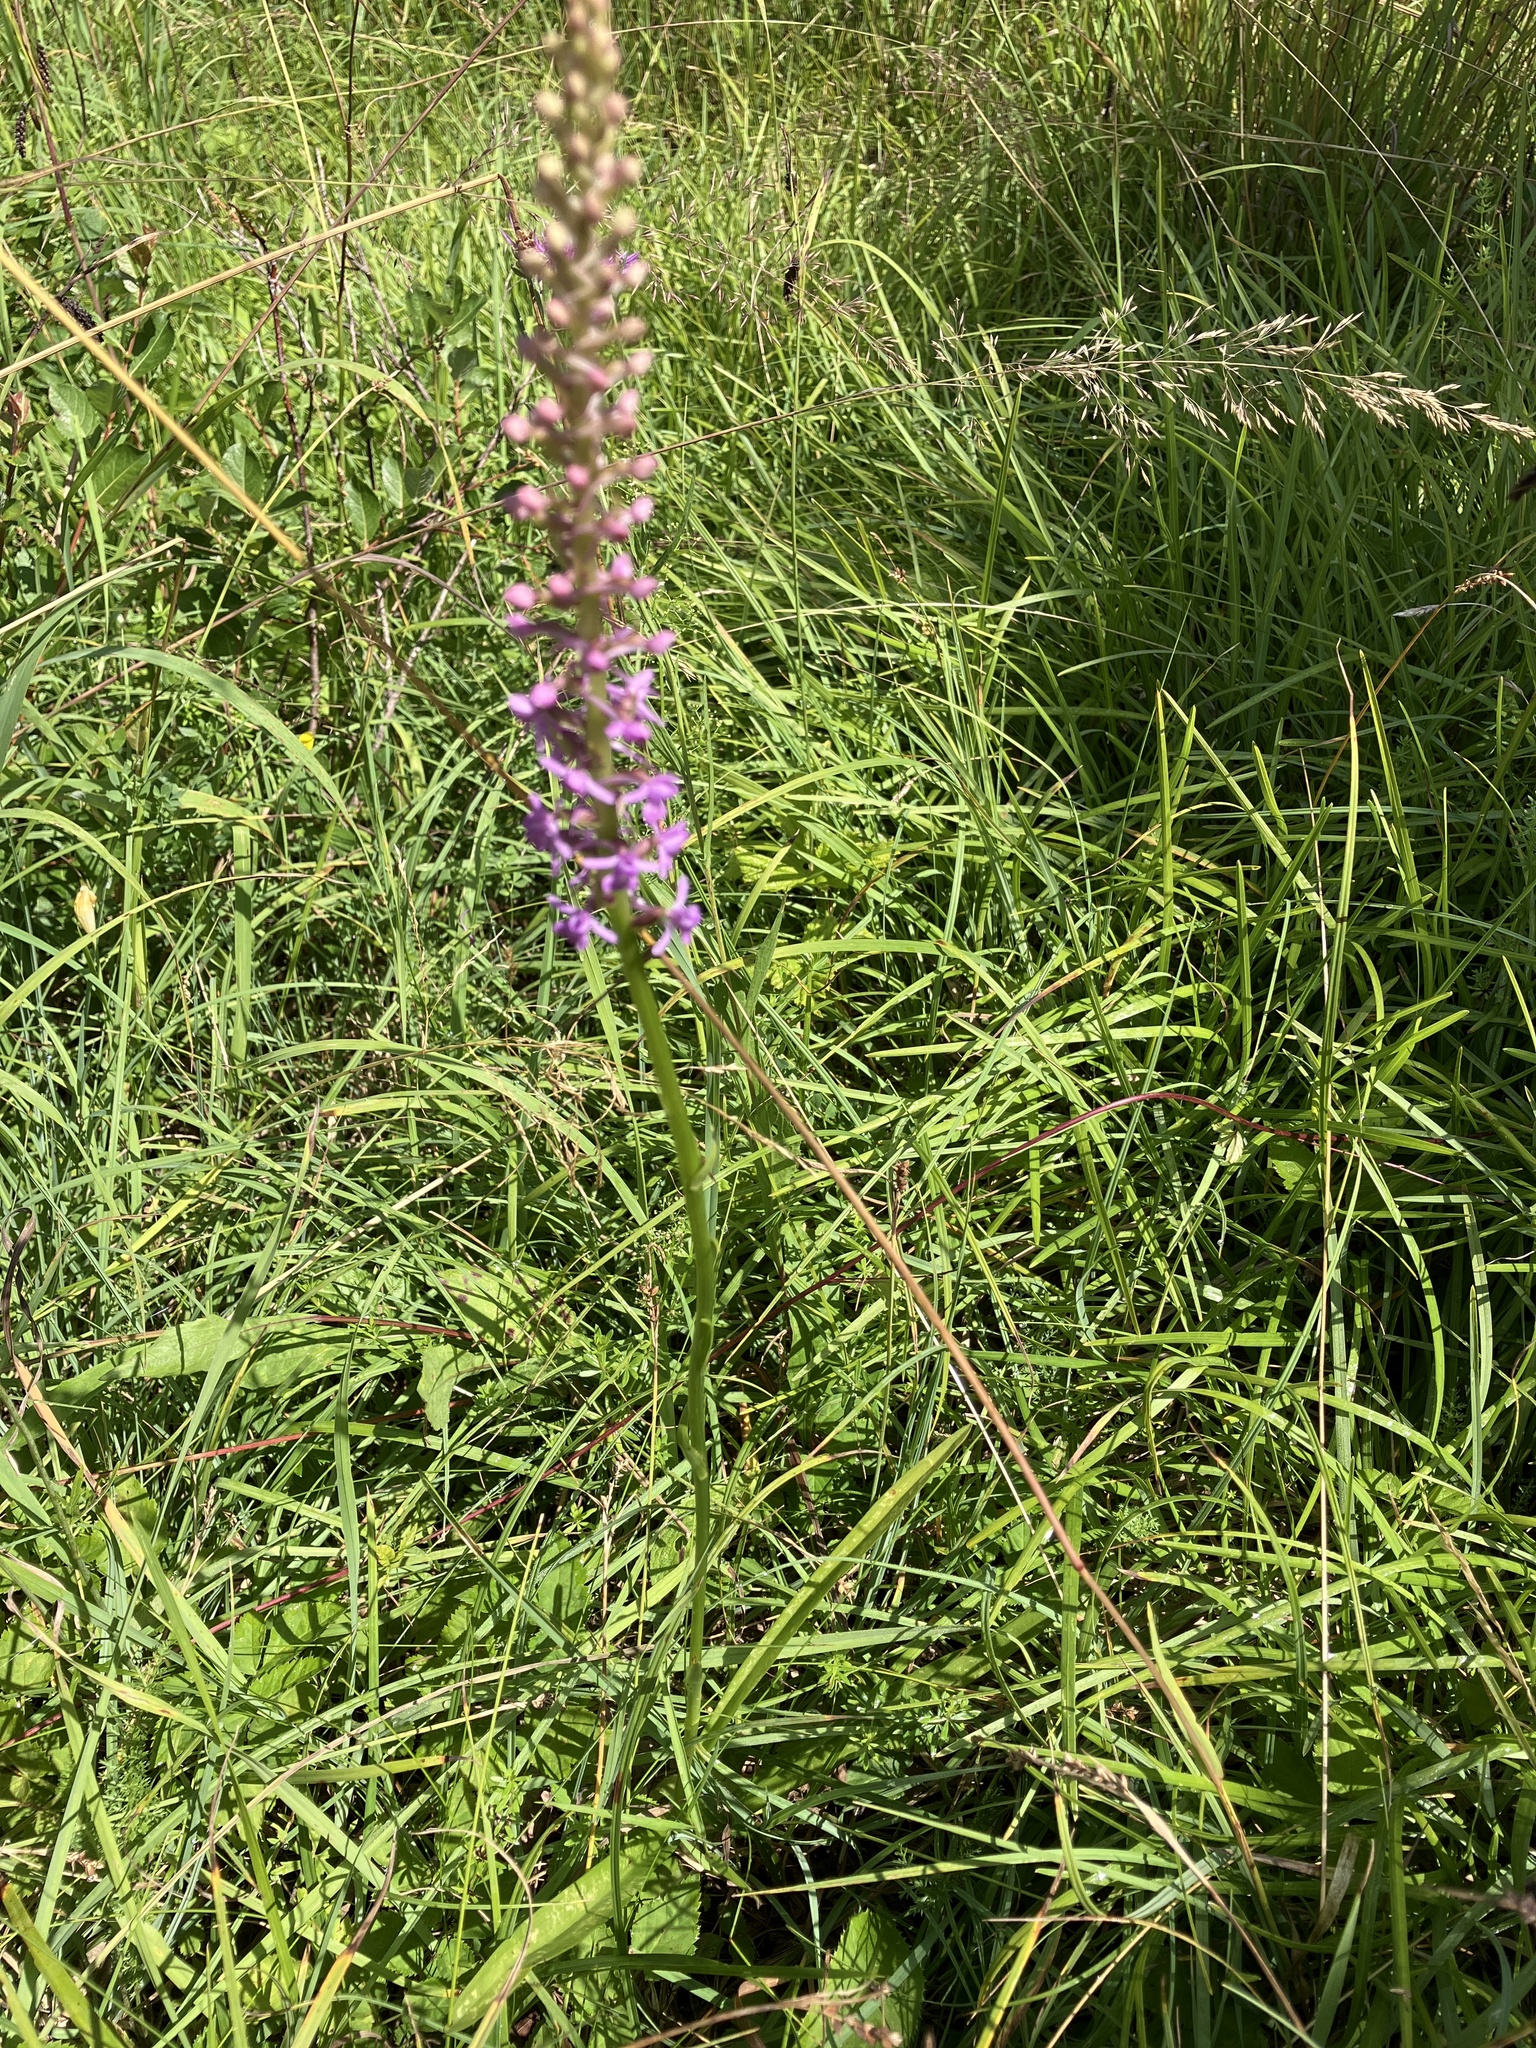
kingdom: Plantae
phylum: Tracheophyta
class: Liliopsida
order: Asparagales
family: Orchidaceae
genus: Gymnadenia
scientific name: Gymnadenia conopsea
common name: Fragrant orchid
